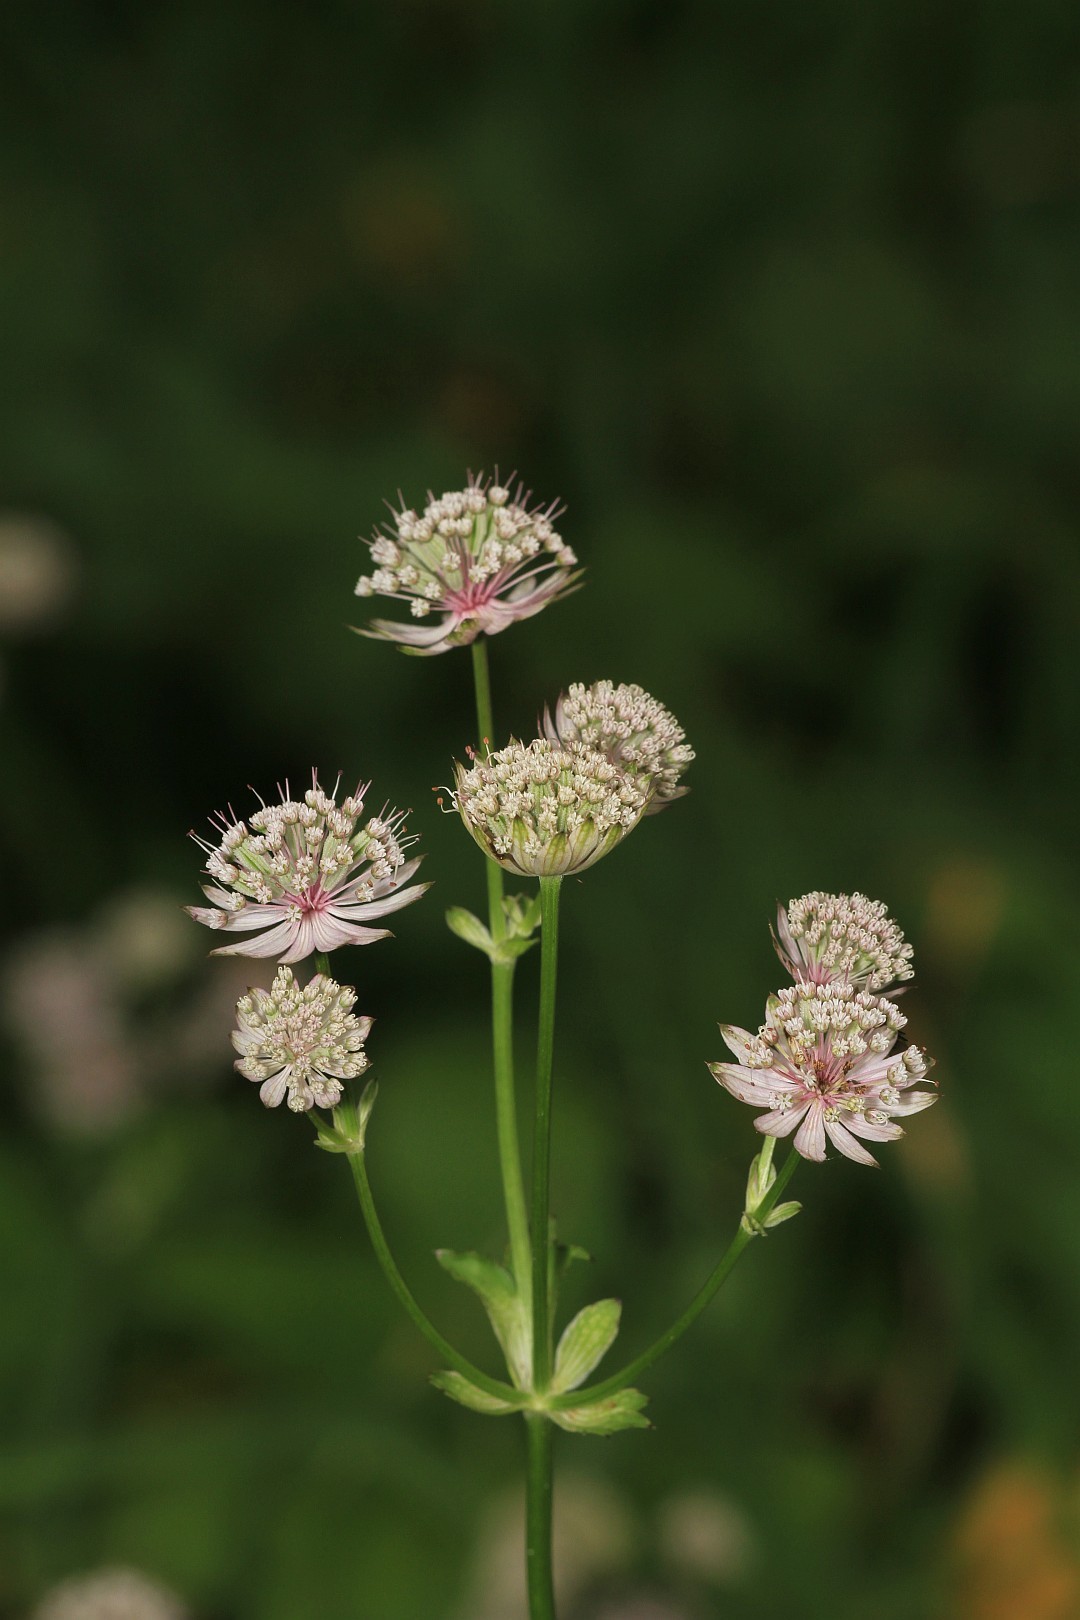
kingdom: Plantae
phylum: Tracheophyta
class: Magnoliopsida
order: Apiales
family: Apiaceae
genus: Astrantia
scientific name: Astrantia major
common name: Greater masterwort
